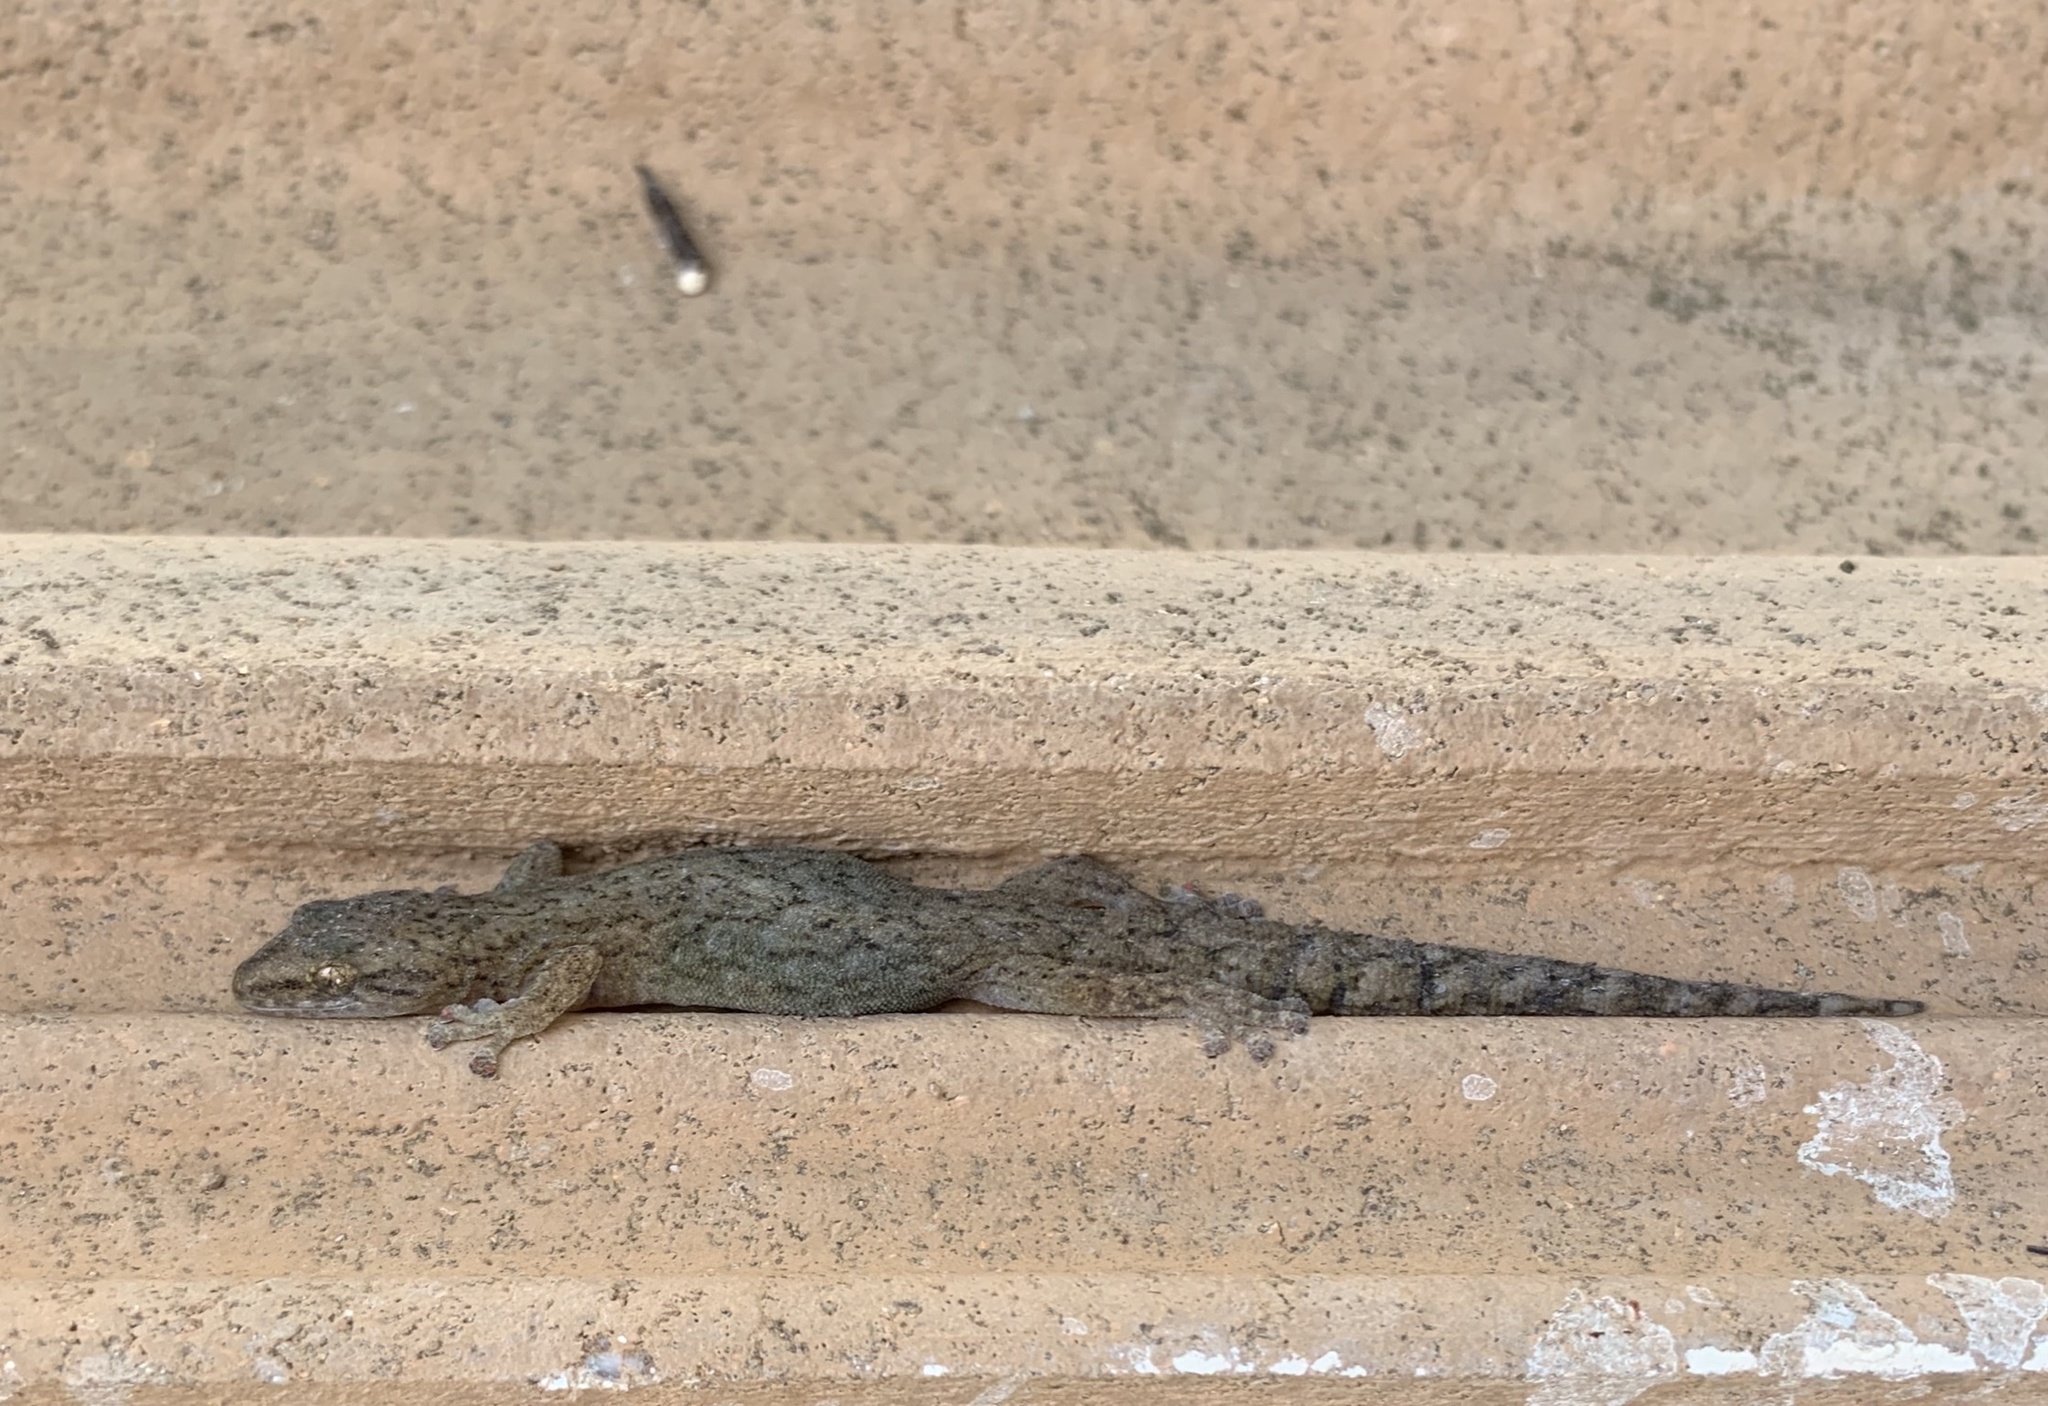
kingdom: Animalia
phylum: Chordata
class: Squamata
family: Gekkonidae
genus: Afrogecko
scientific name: Afrogecko porphyreus
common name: Marbled leaf-toed gecko
